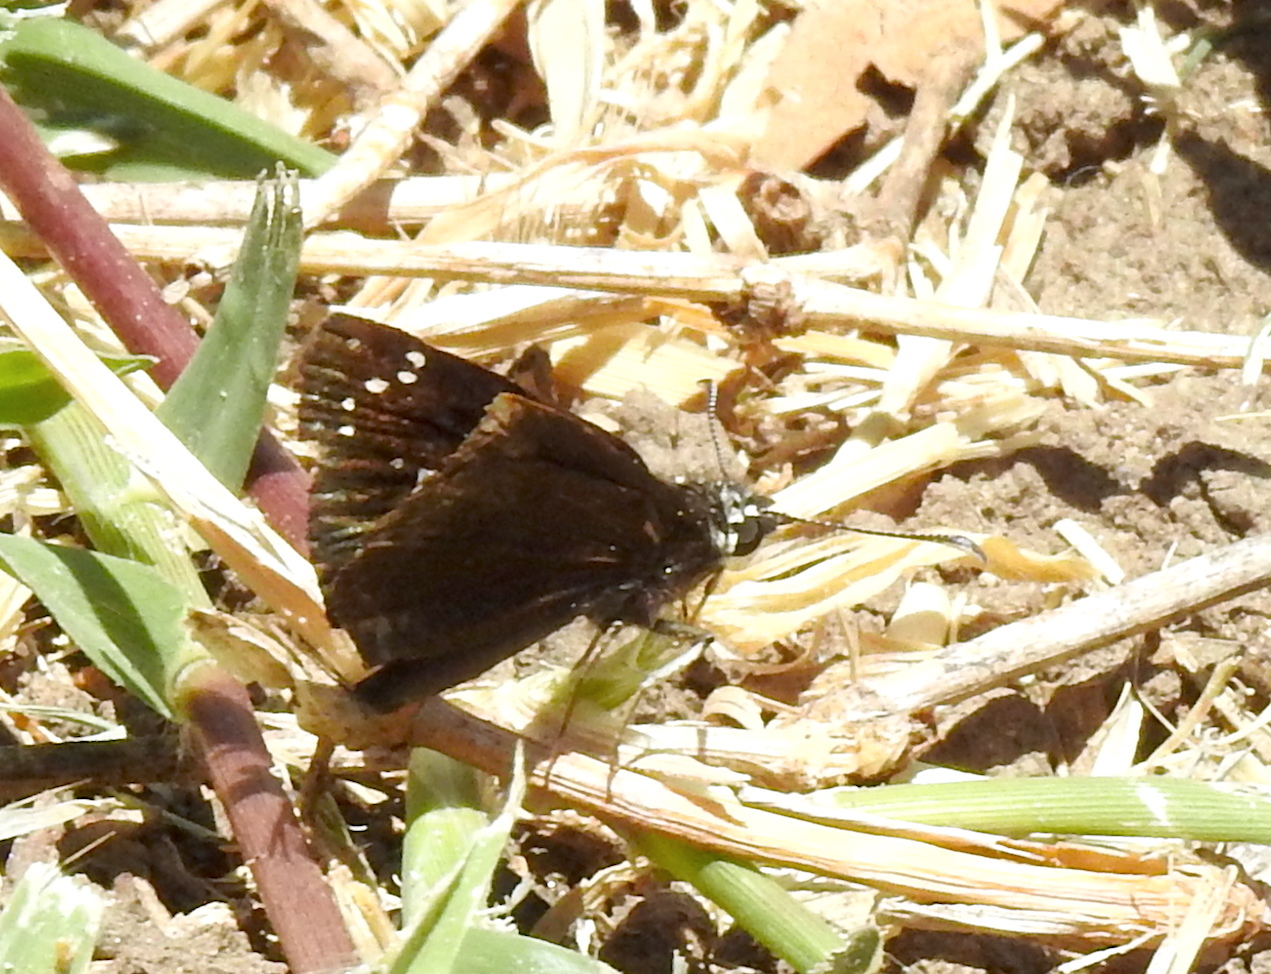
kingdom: Animalia
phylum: Arthropoda
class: Insecta
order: Lepidoptera
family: Hesperiidae
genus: Pholisora
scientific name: Pholisora catullus
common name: Common sootywing
